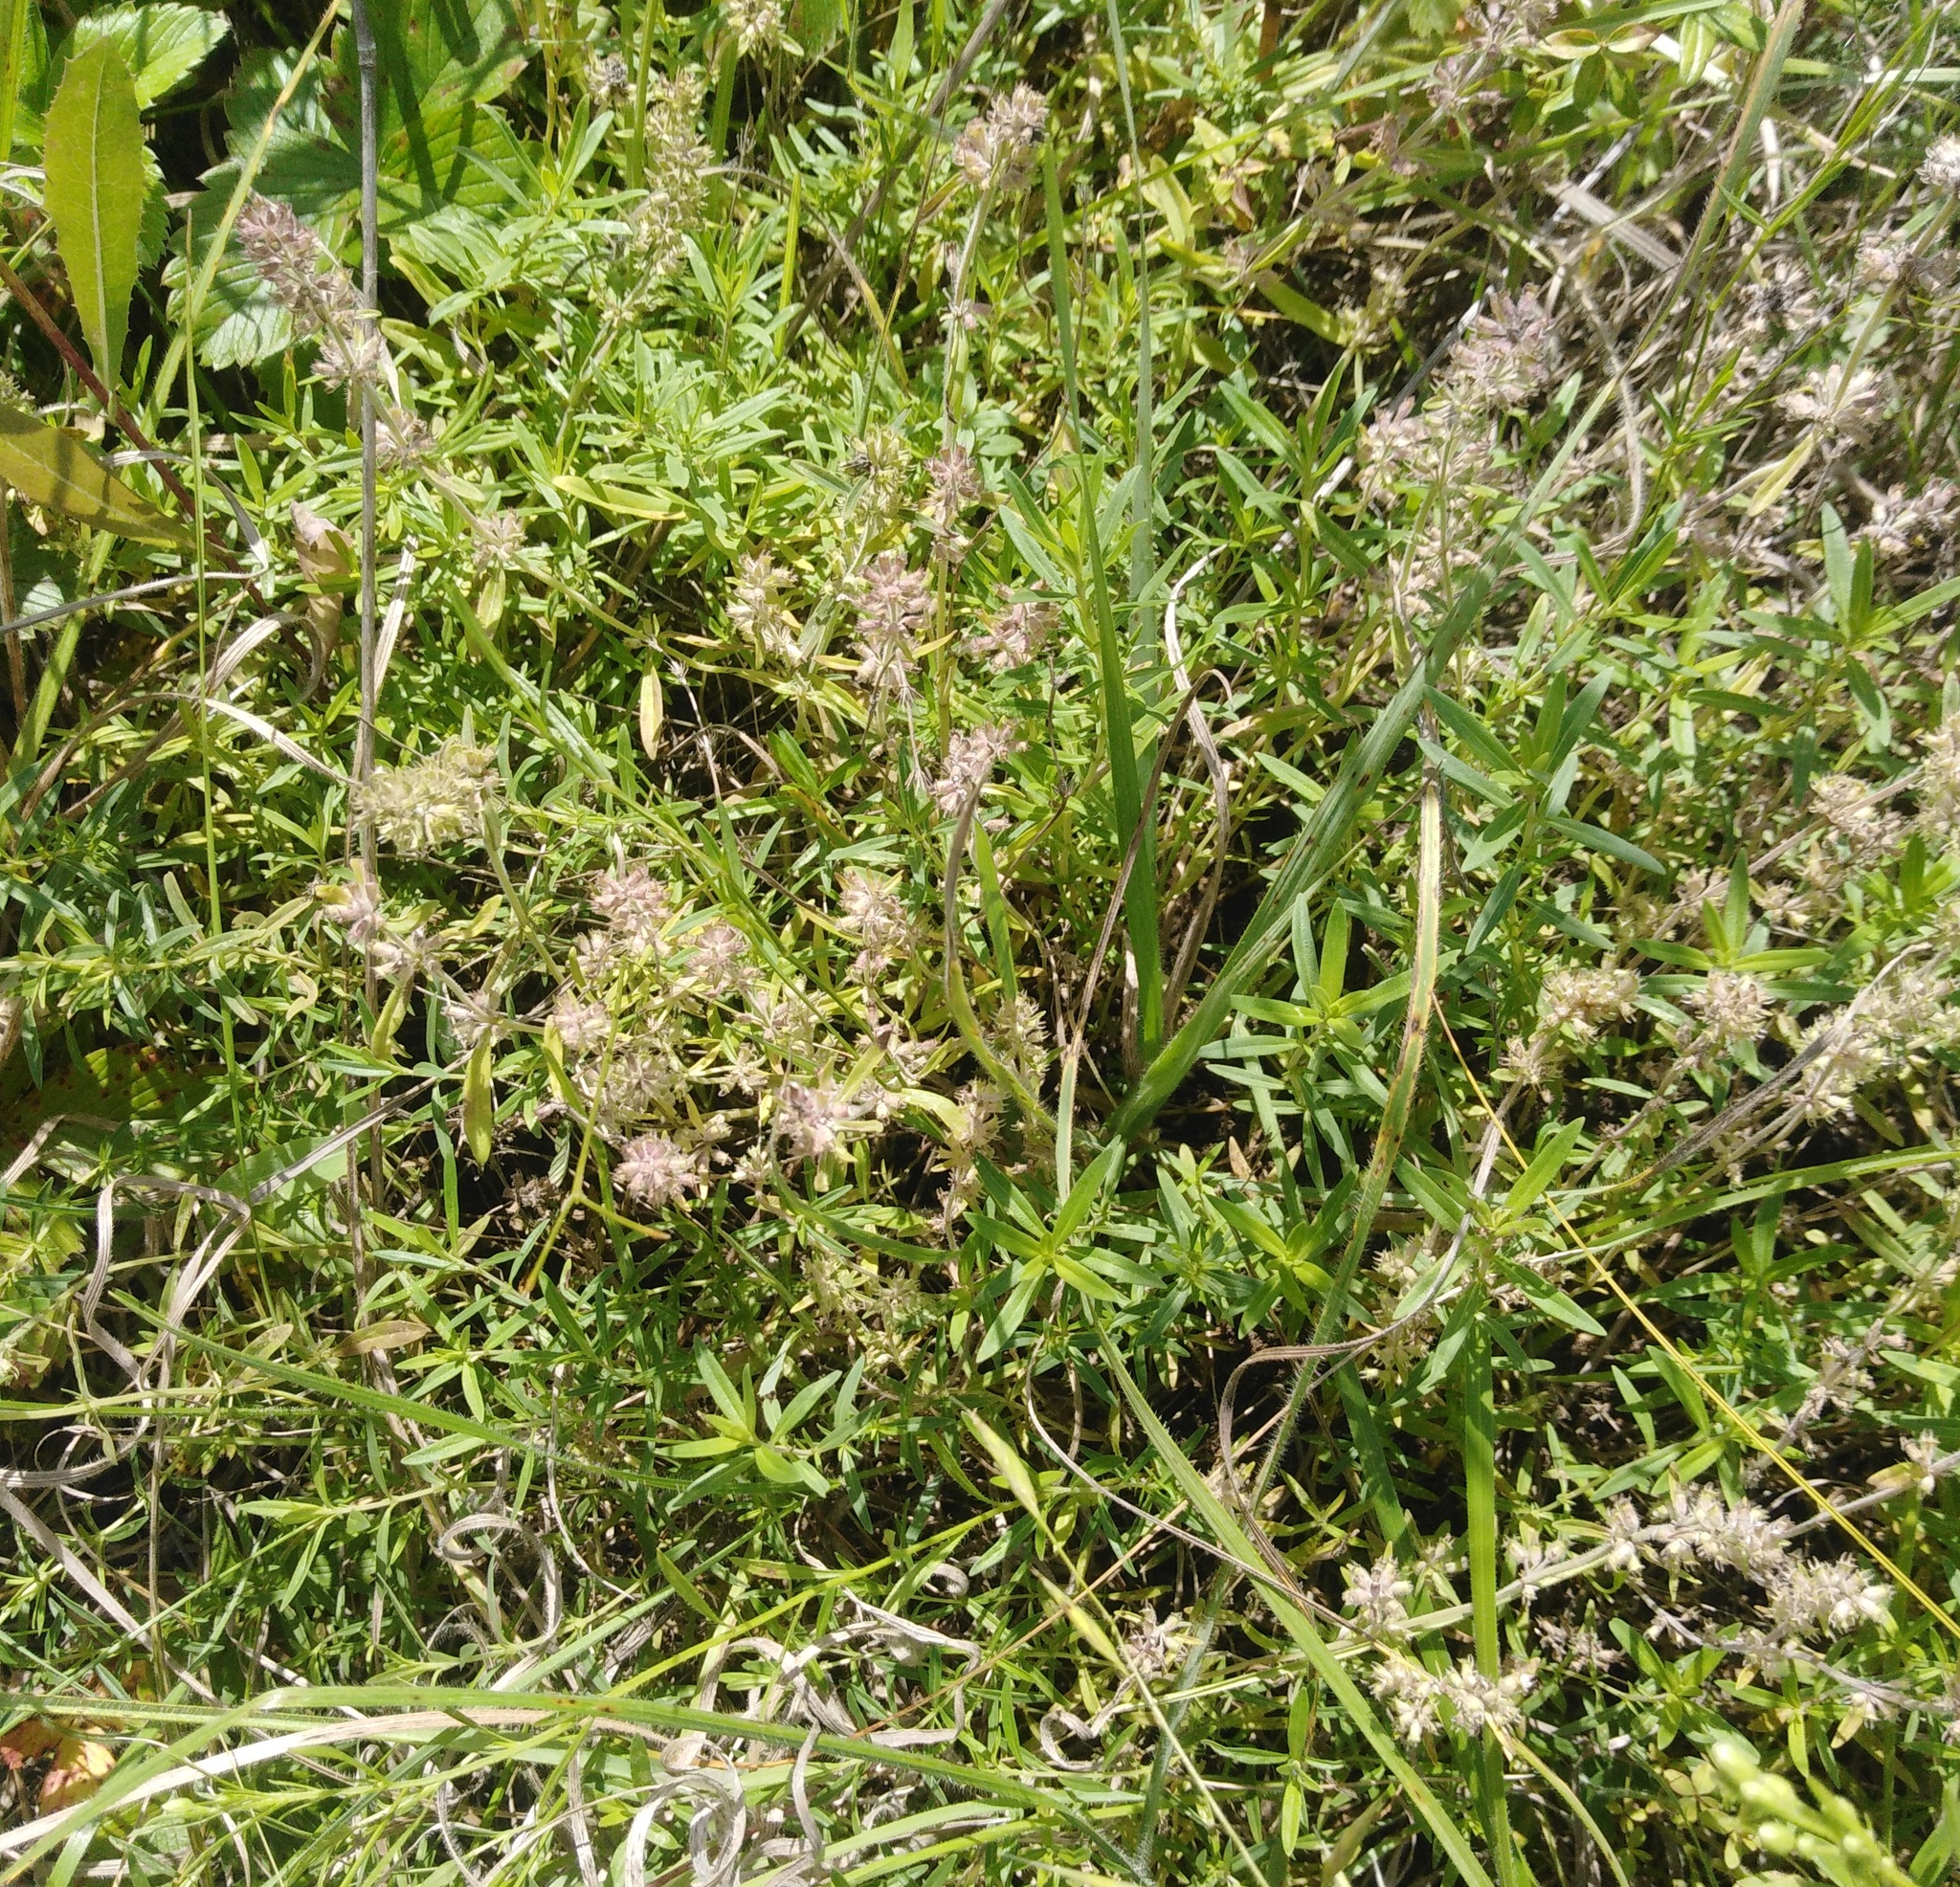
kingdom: Plantae
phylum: Tracheophyta
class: Magnoliopsida
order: Lamiales
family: Lamiaceae
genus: Thymus
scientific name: Thymus pannonicus
